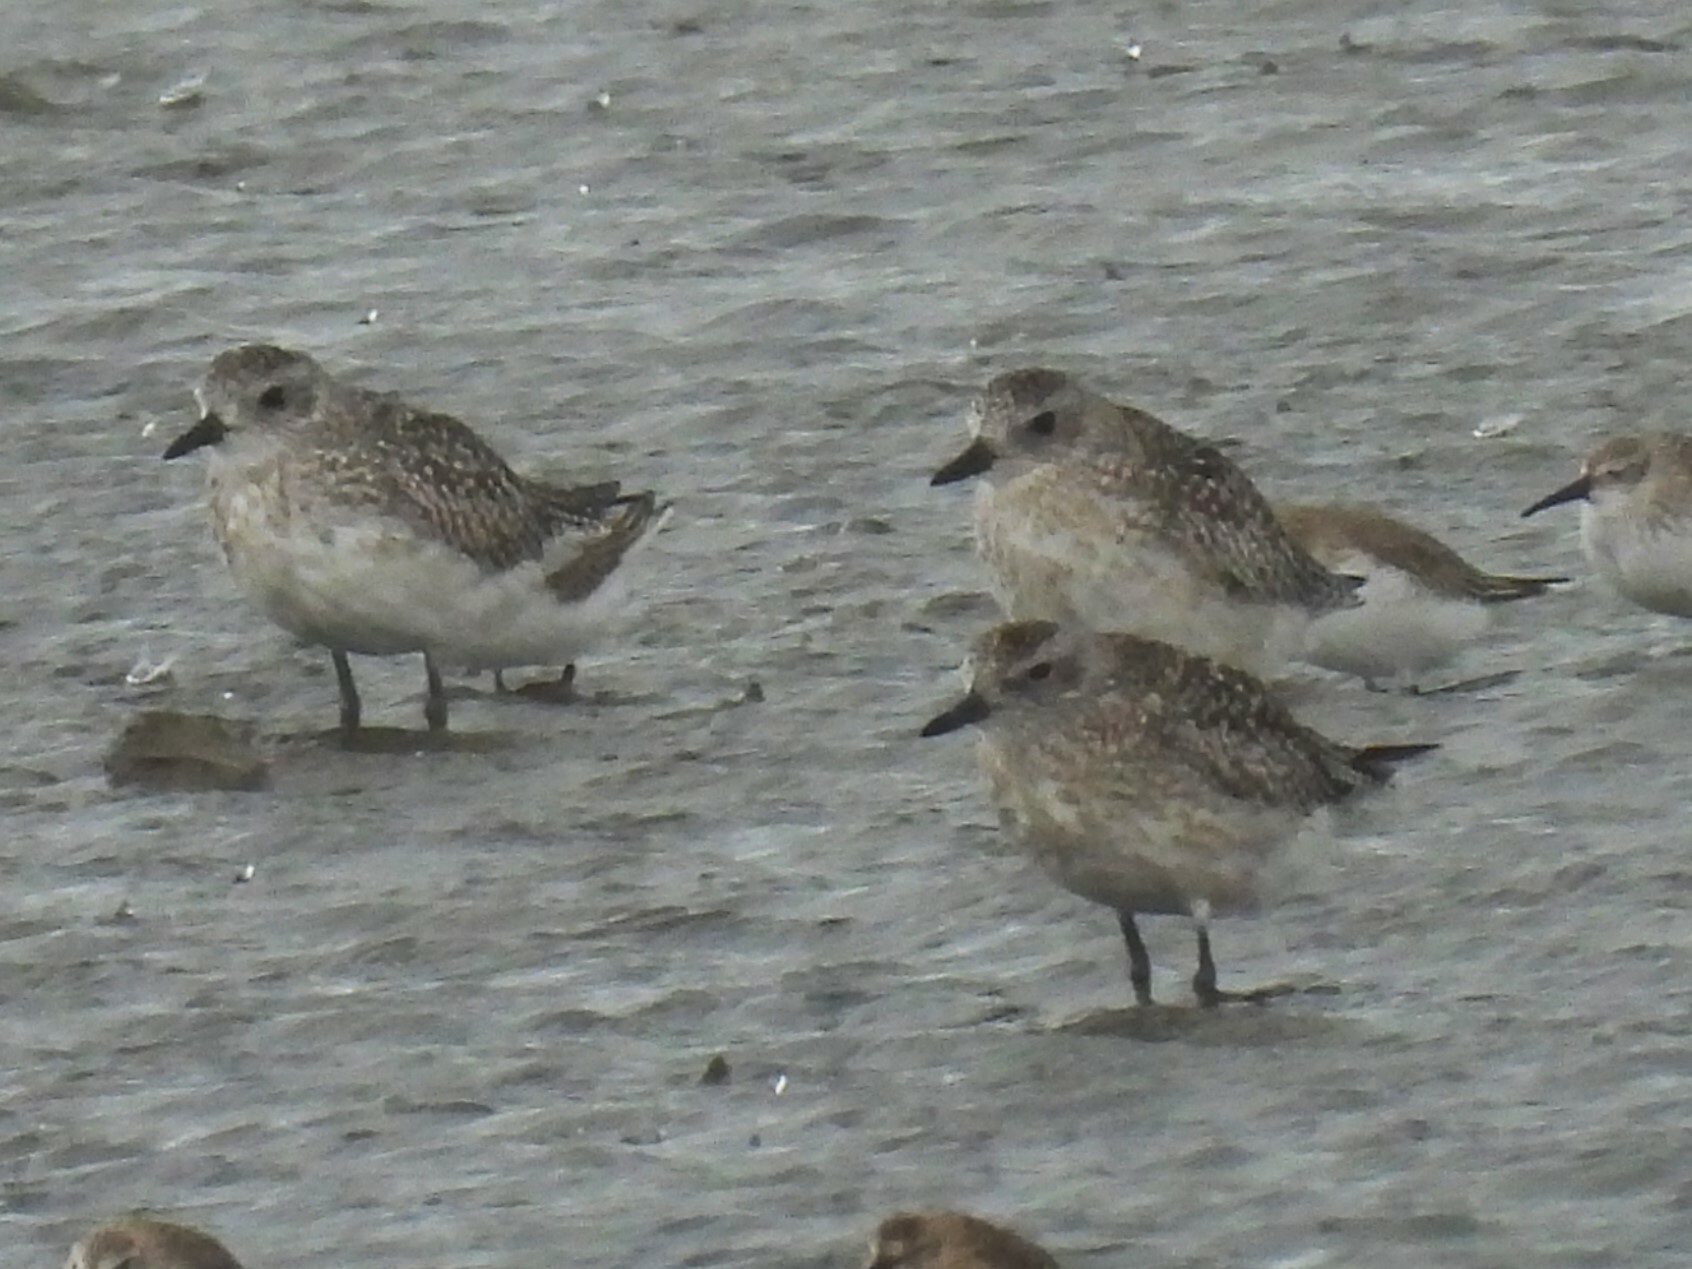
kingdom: Animalia
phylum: Chordata
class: Aves
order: Charadriiformes
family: Charadriidae
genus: Pluvialis
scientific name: Pluvialis squatarola
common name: Grey plover
